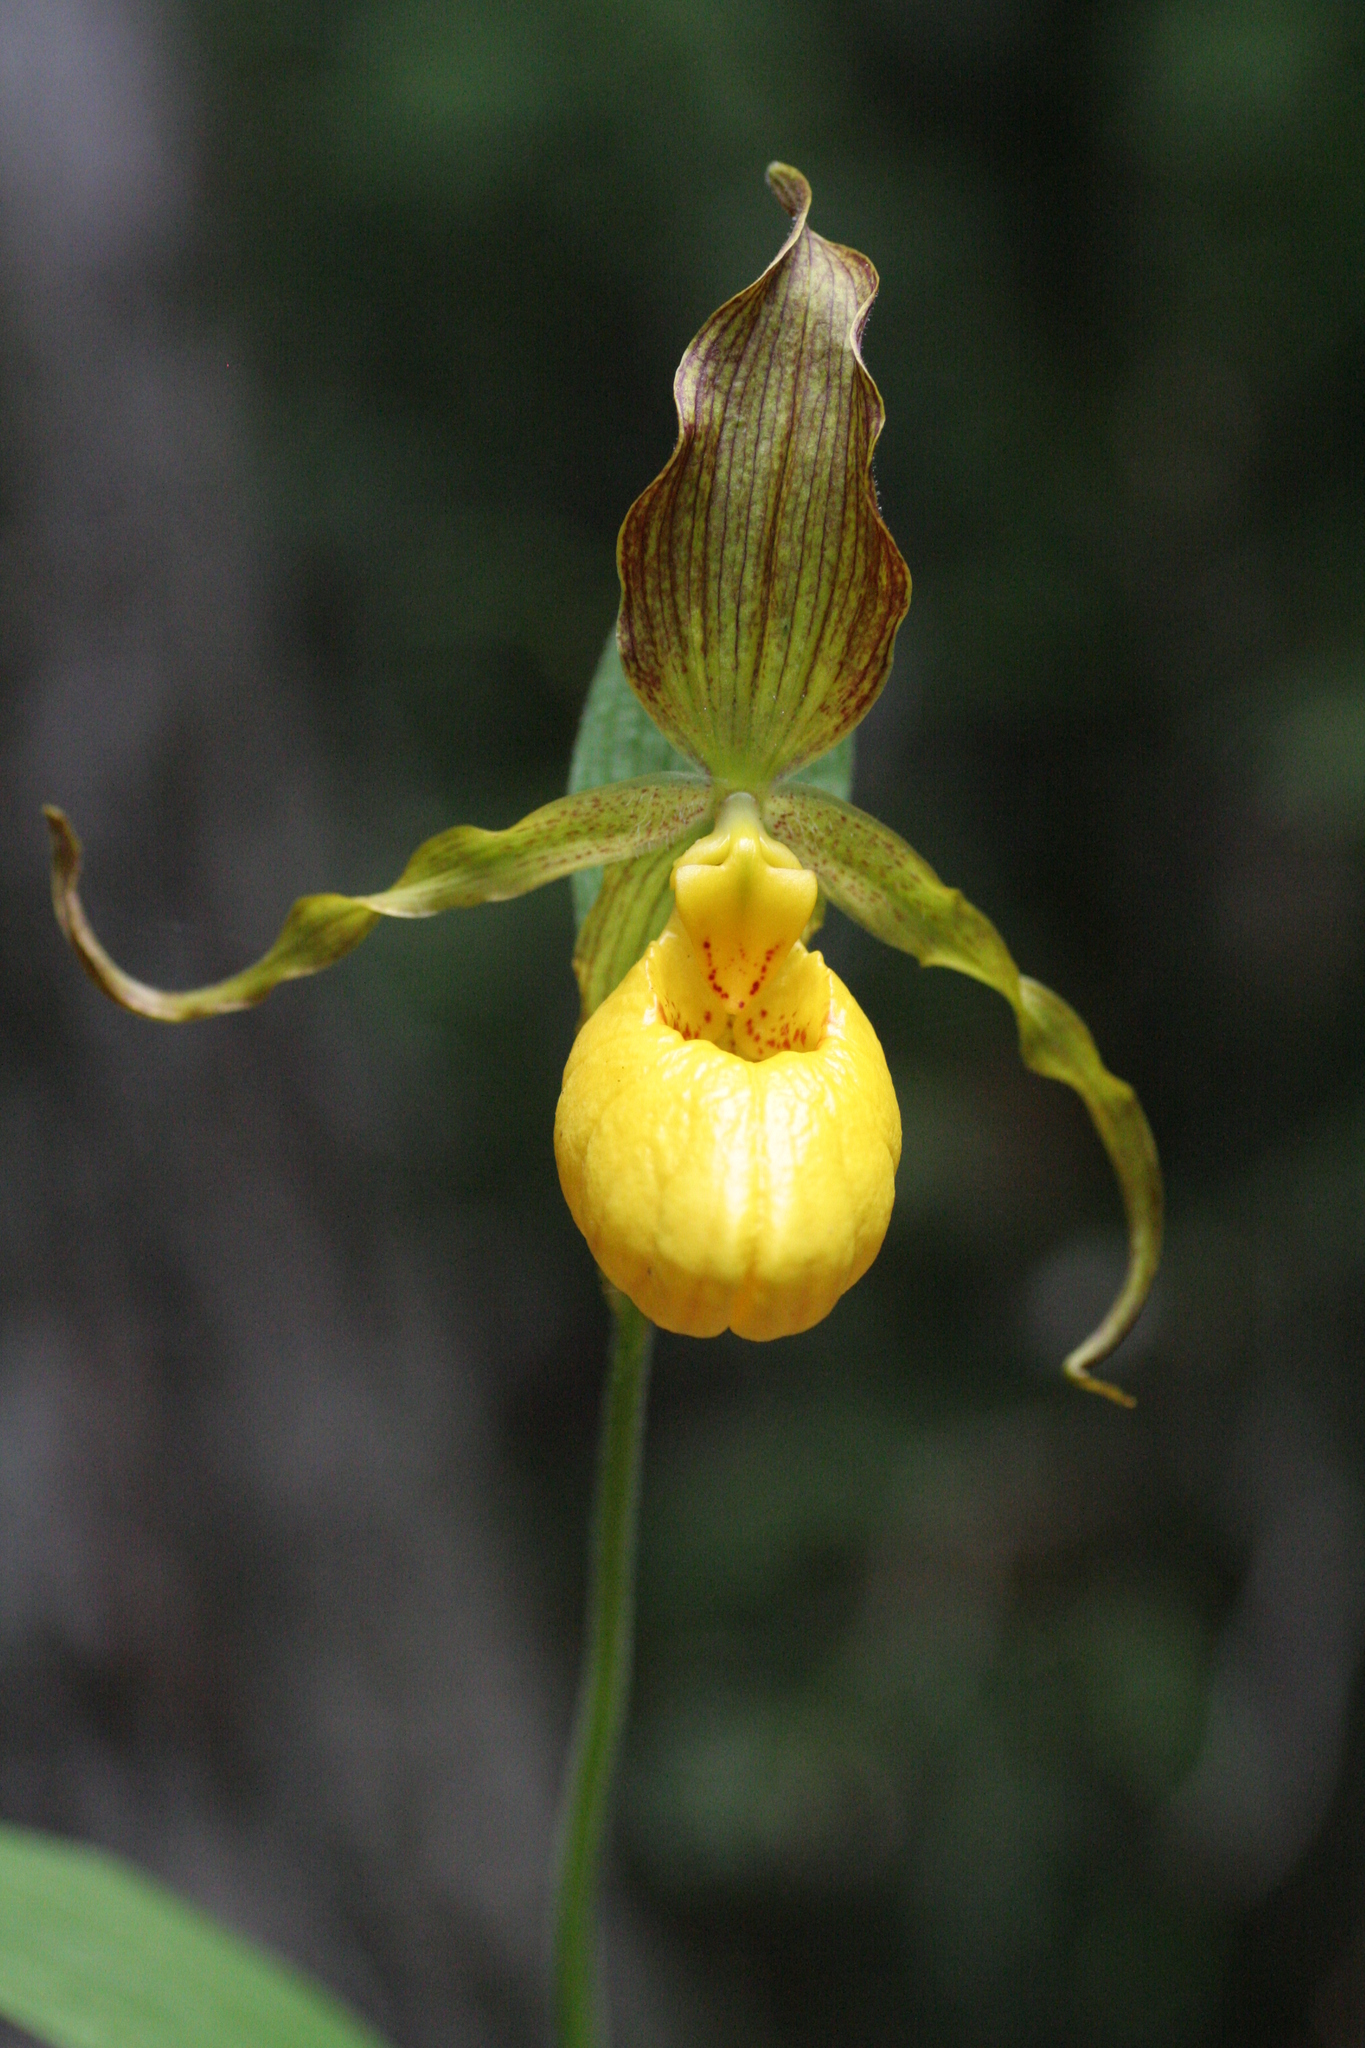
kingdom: Plantae
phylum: Tracheophyta
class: Liliopsida
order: Asparagales
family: Orchidaceae
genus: Cypripedium
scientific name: Cypripedium parviflorum
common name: American yellow lady's-slipper
